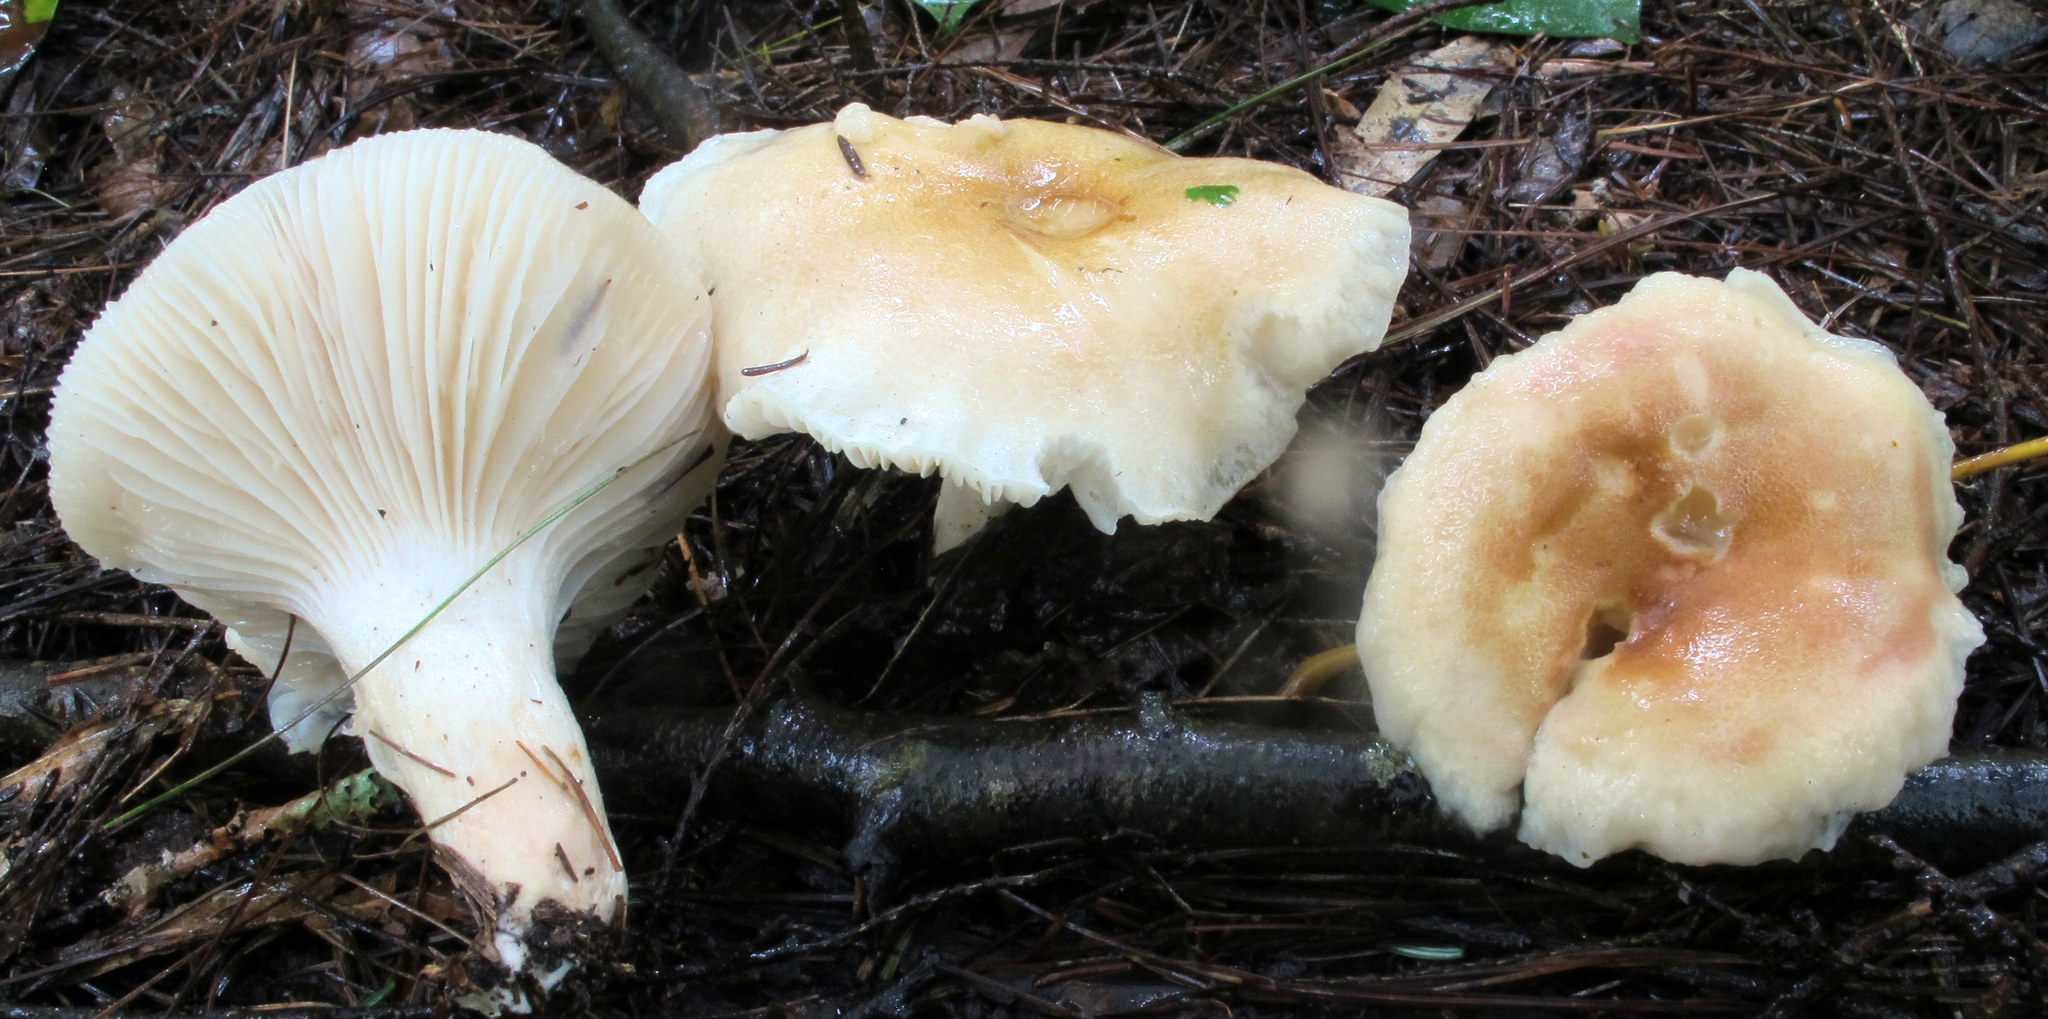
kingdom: Fungi
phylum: Basidiomycota
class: Agaricomycetes
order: Agaricales
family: Hygrophoraceae
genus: Hygrophorus
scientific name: Hygrophorus tennesseensis
